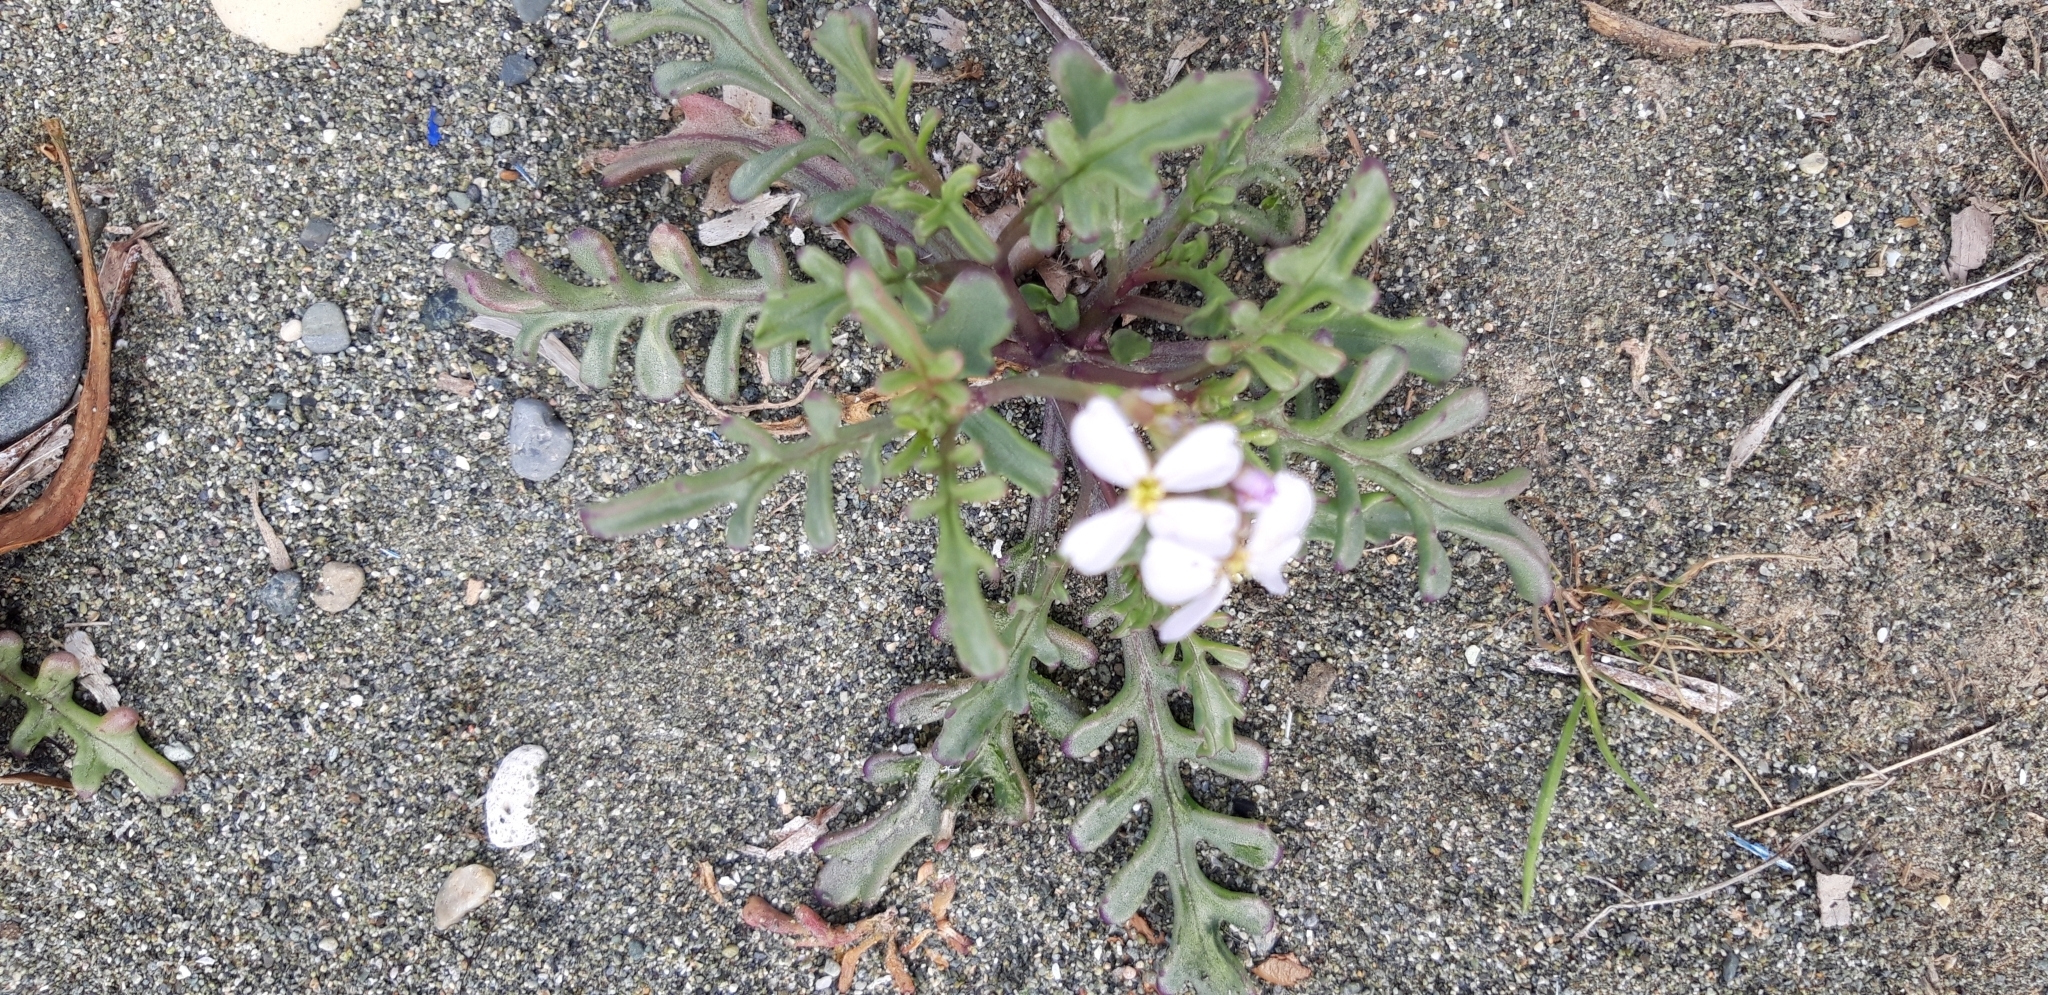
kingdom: Plantae
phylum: Tracheophyta
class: Magnoliopsida
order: Brassicales
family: Brassicaceae
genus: Cakile
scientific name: Cakile maritima
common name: Sea rocket
